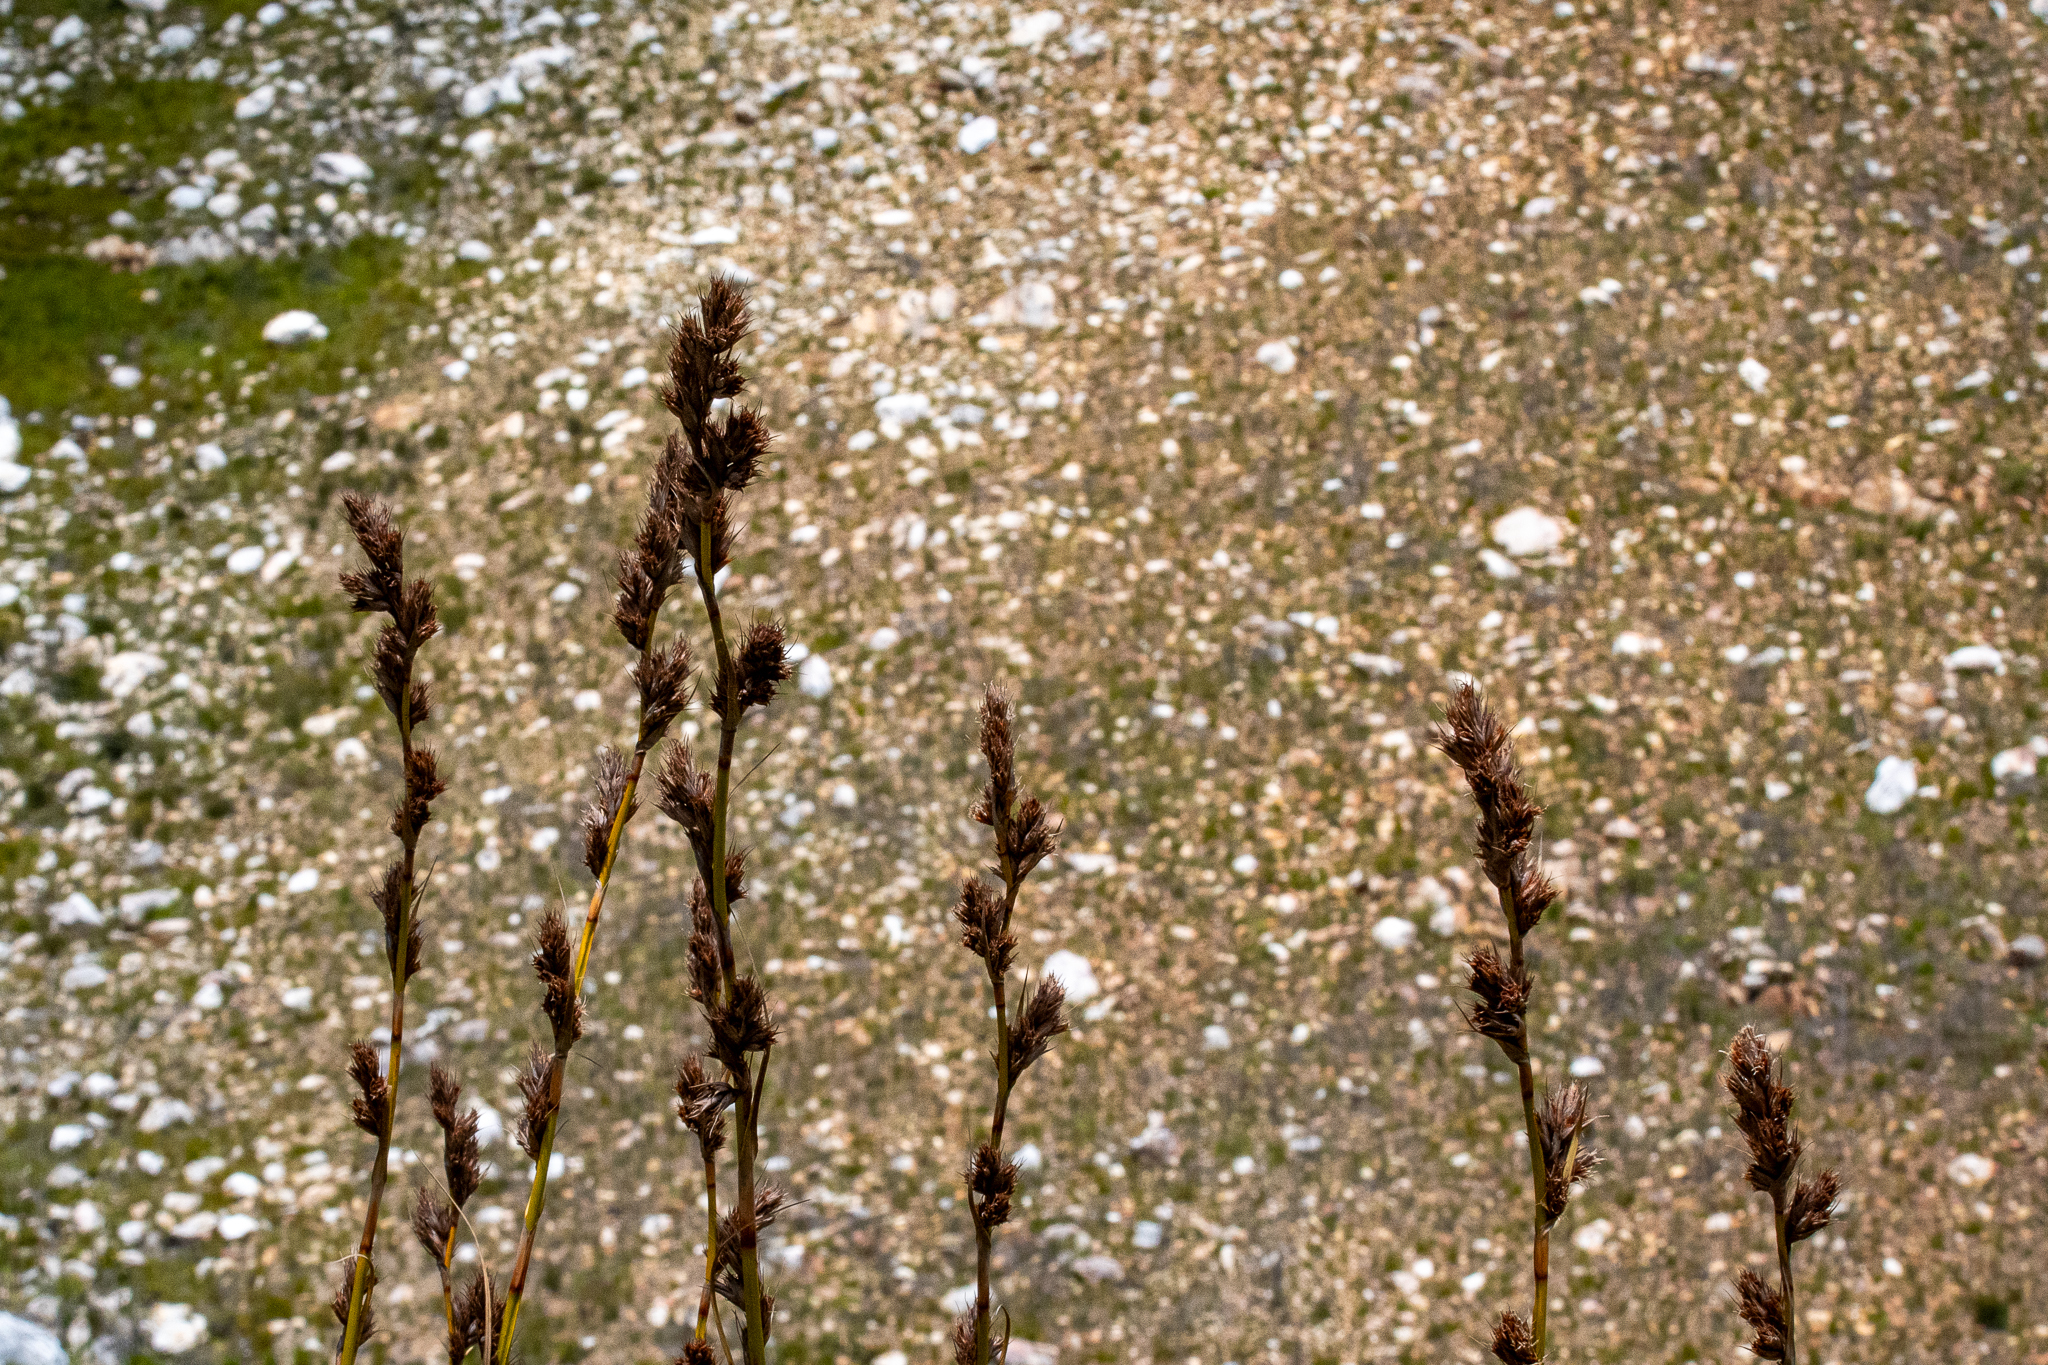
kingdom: Plantae
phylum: Tracheophyta
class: Liliopsida
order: Poales
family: Cyperaceae
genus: Tetraria
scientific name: Tetraria thermalis
